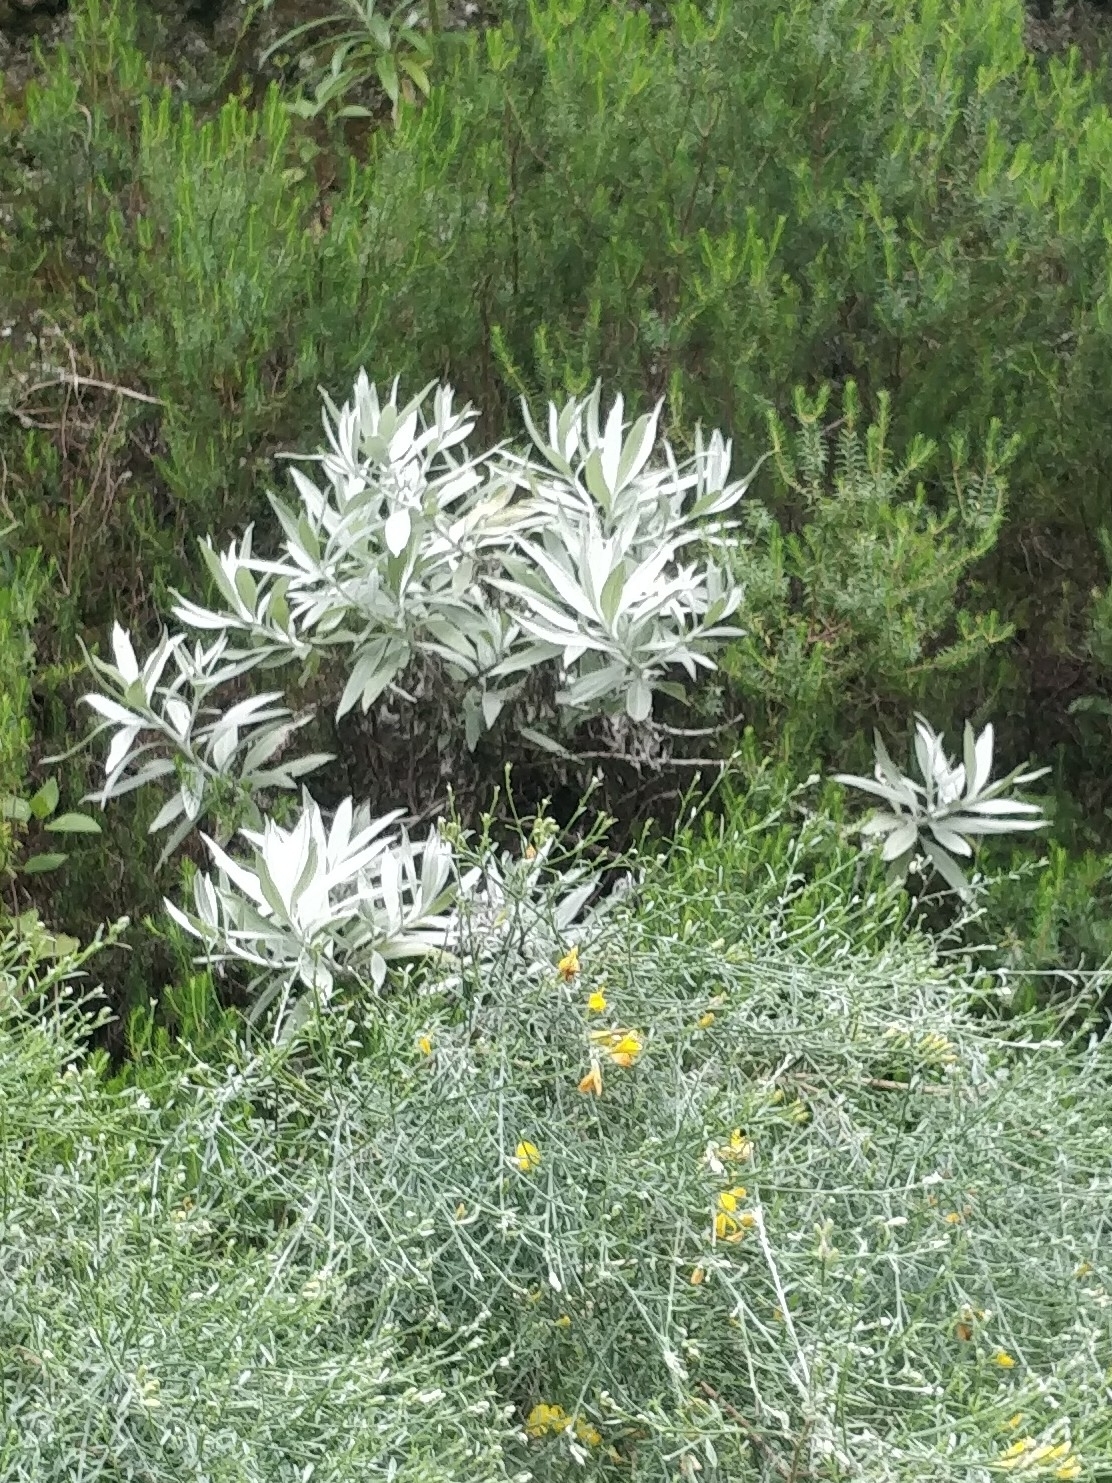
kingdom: Plantae
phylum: Tracheophyta
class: Magnoliopsida
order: Asterales
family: Asteraceae
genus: Helichrysum
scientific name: Helichrysum melaleucum
